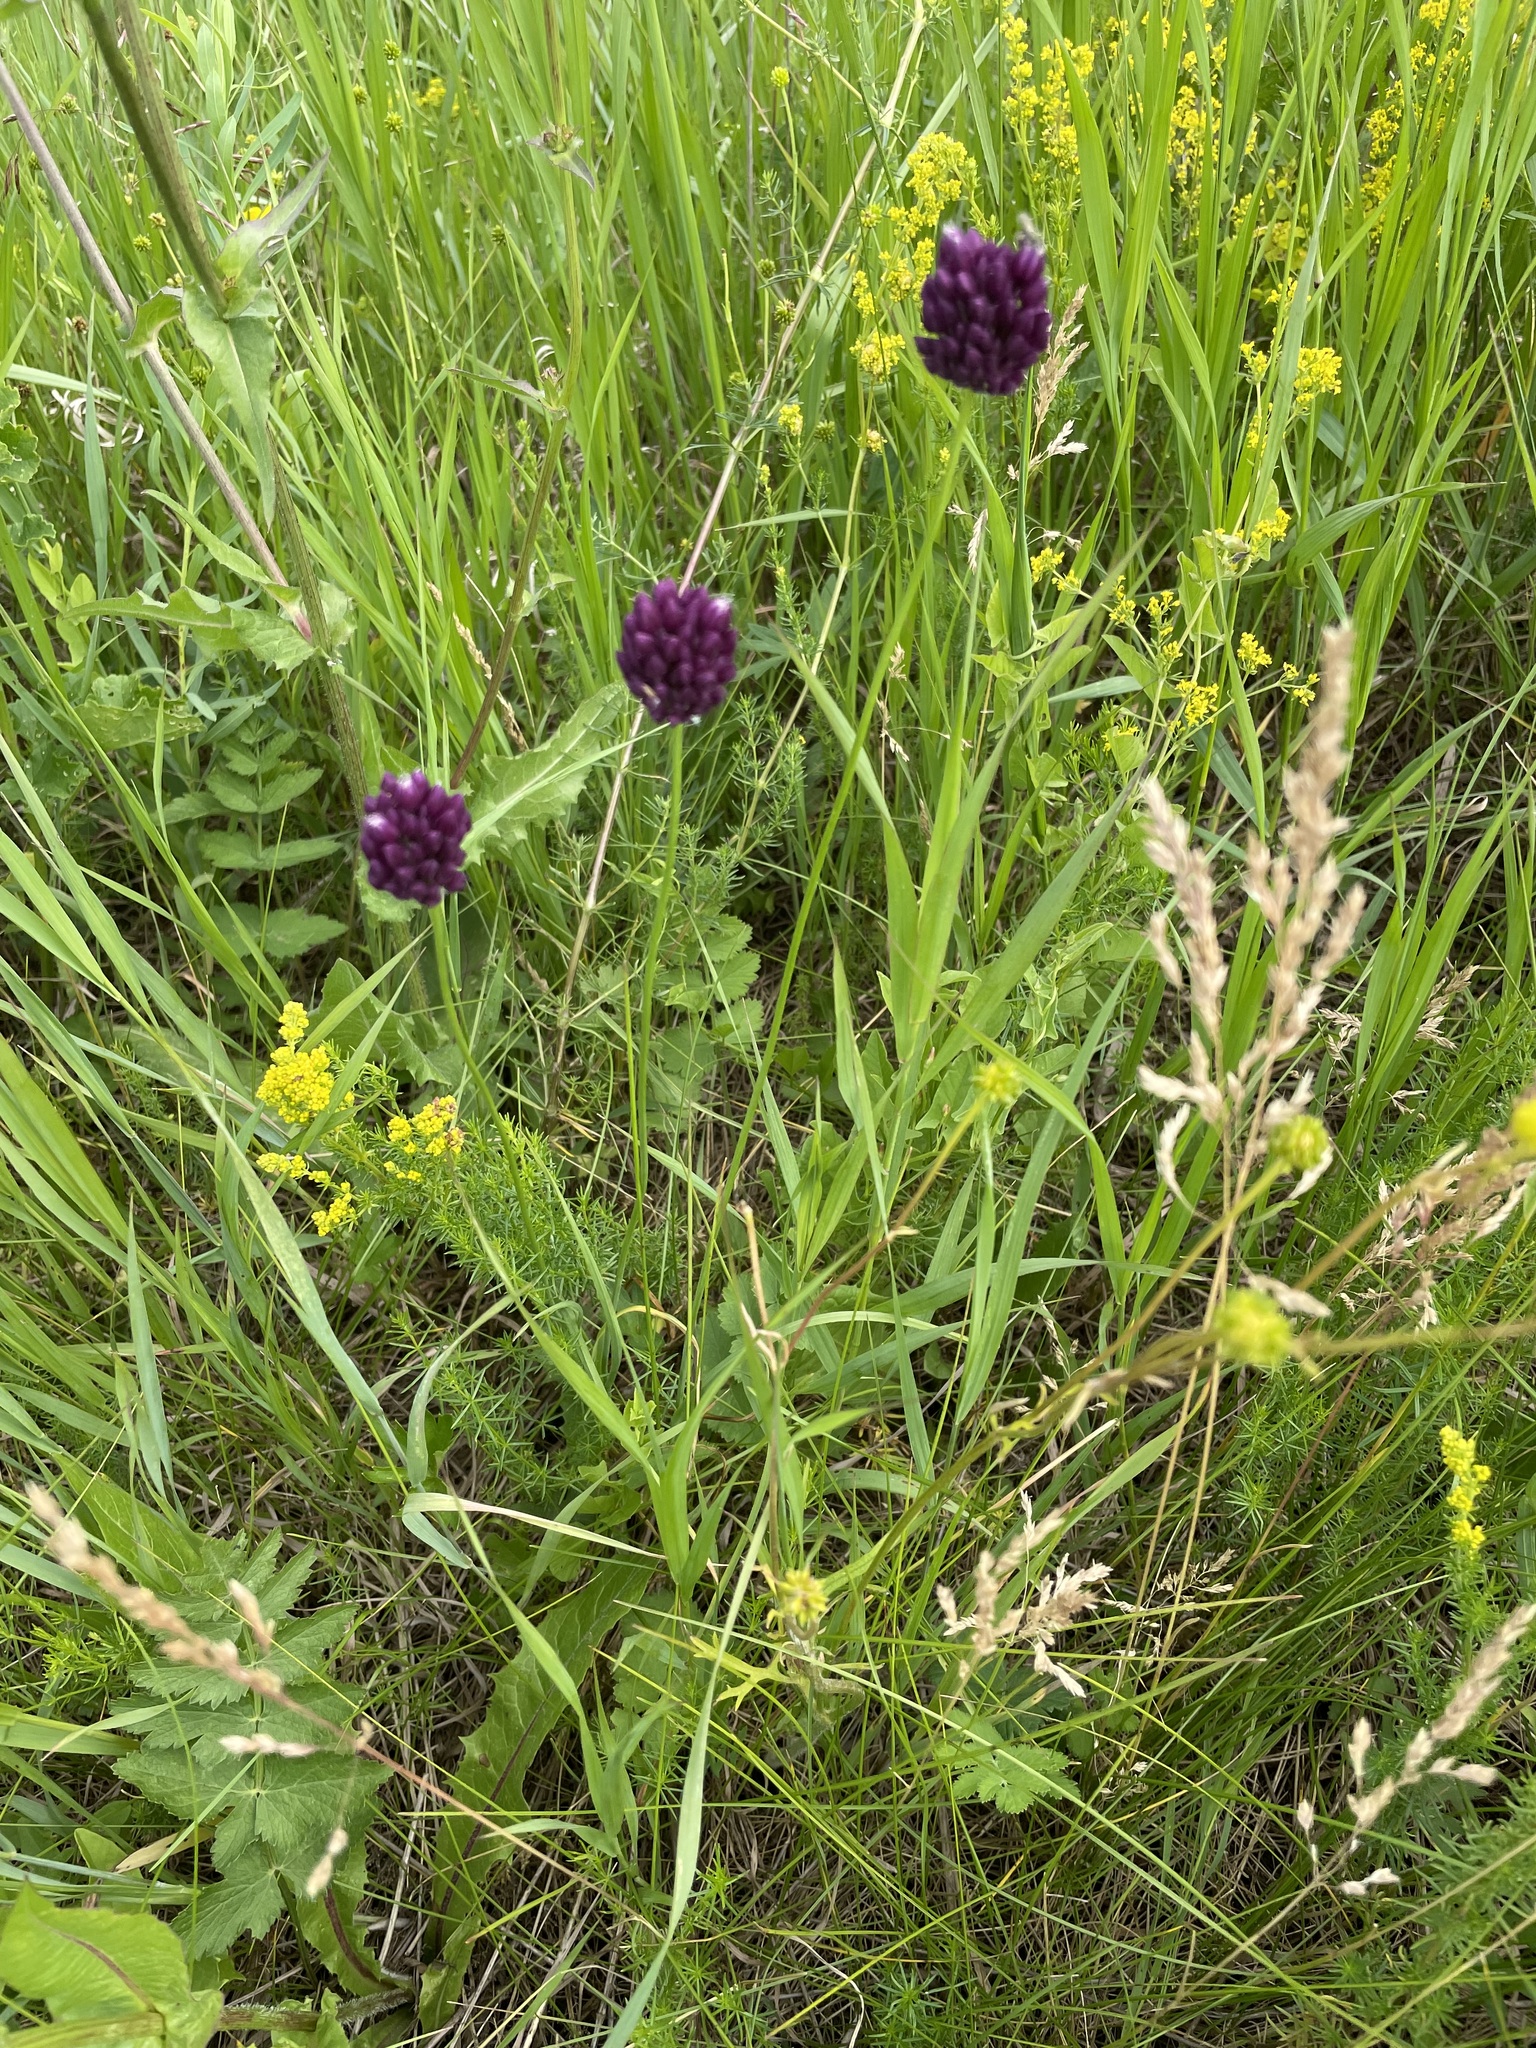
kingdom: Plantae
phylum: Tracheophyta
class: Liliopsida
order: Asparagales
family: Amaryllidaceae
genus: Allium
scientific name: Allium rotundum
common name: Sand leek
